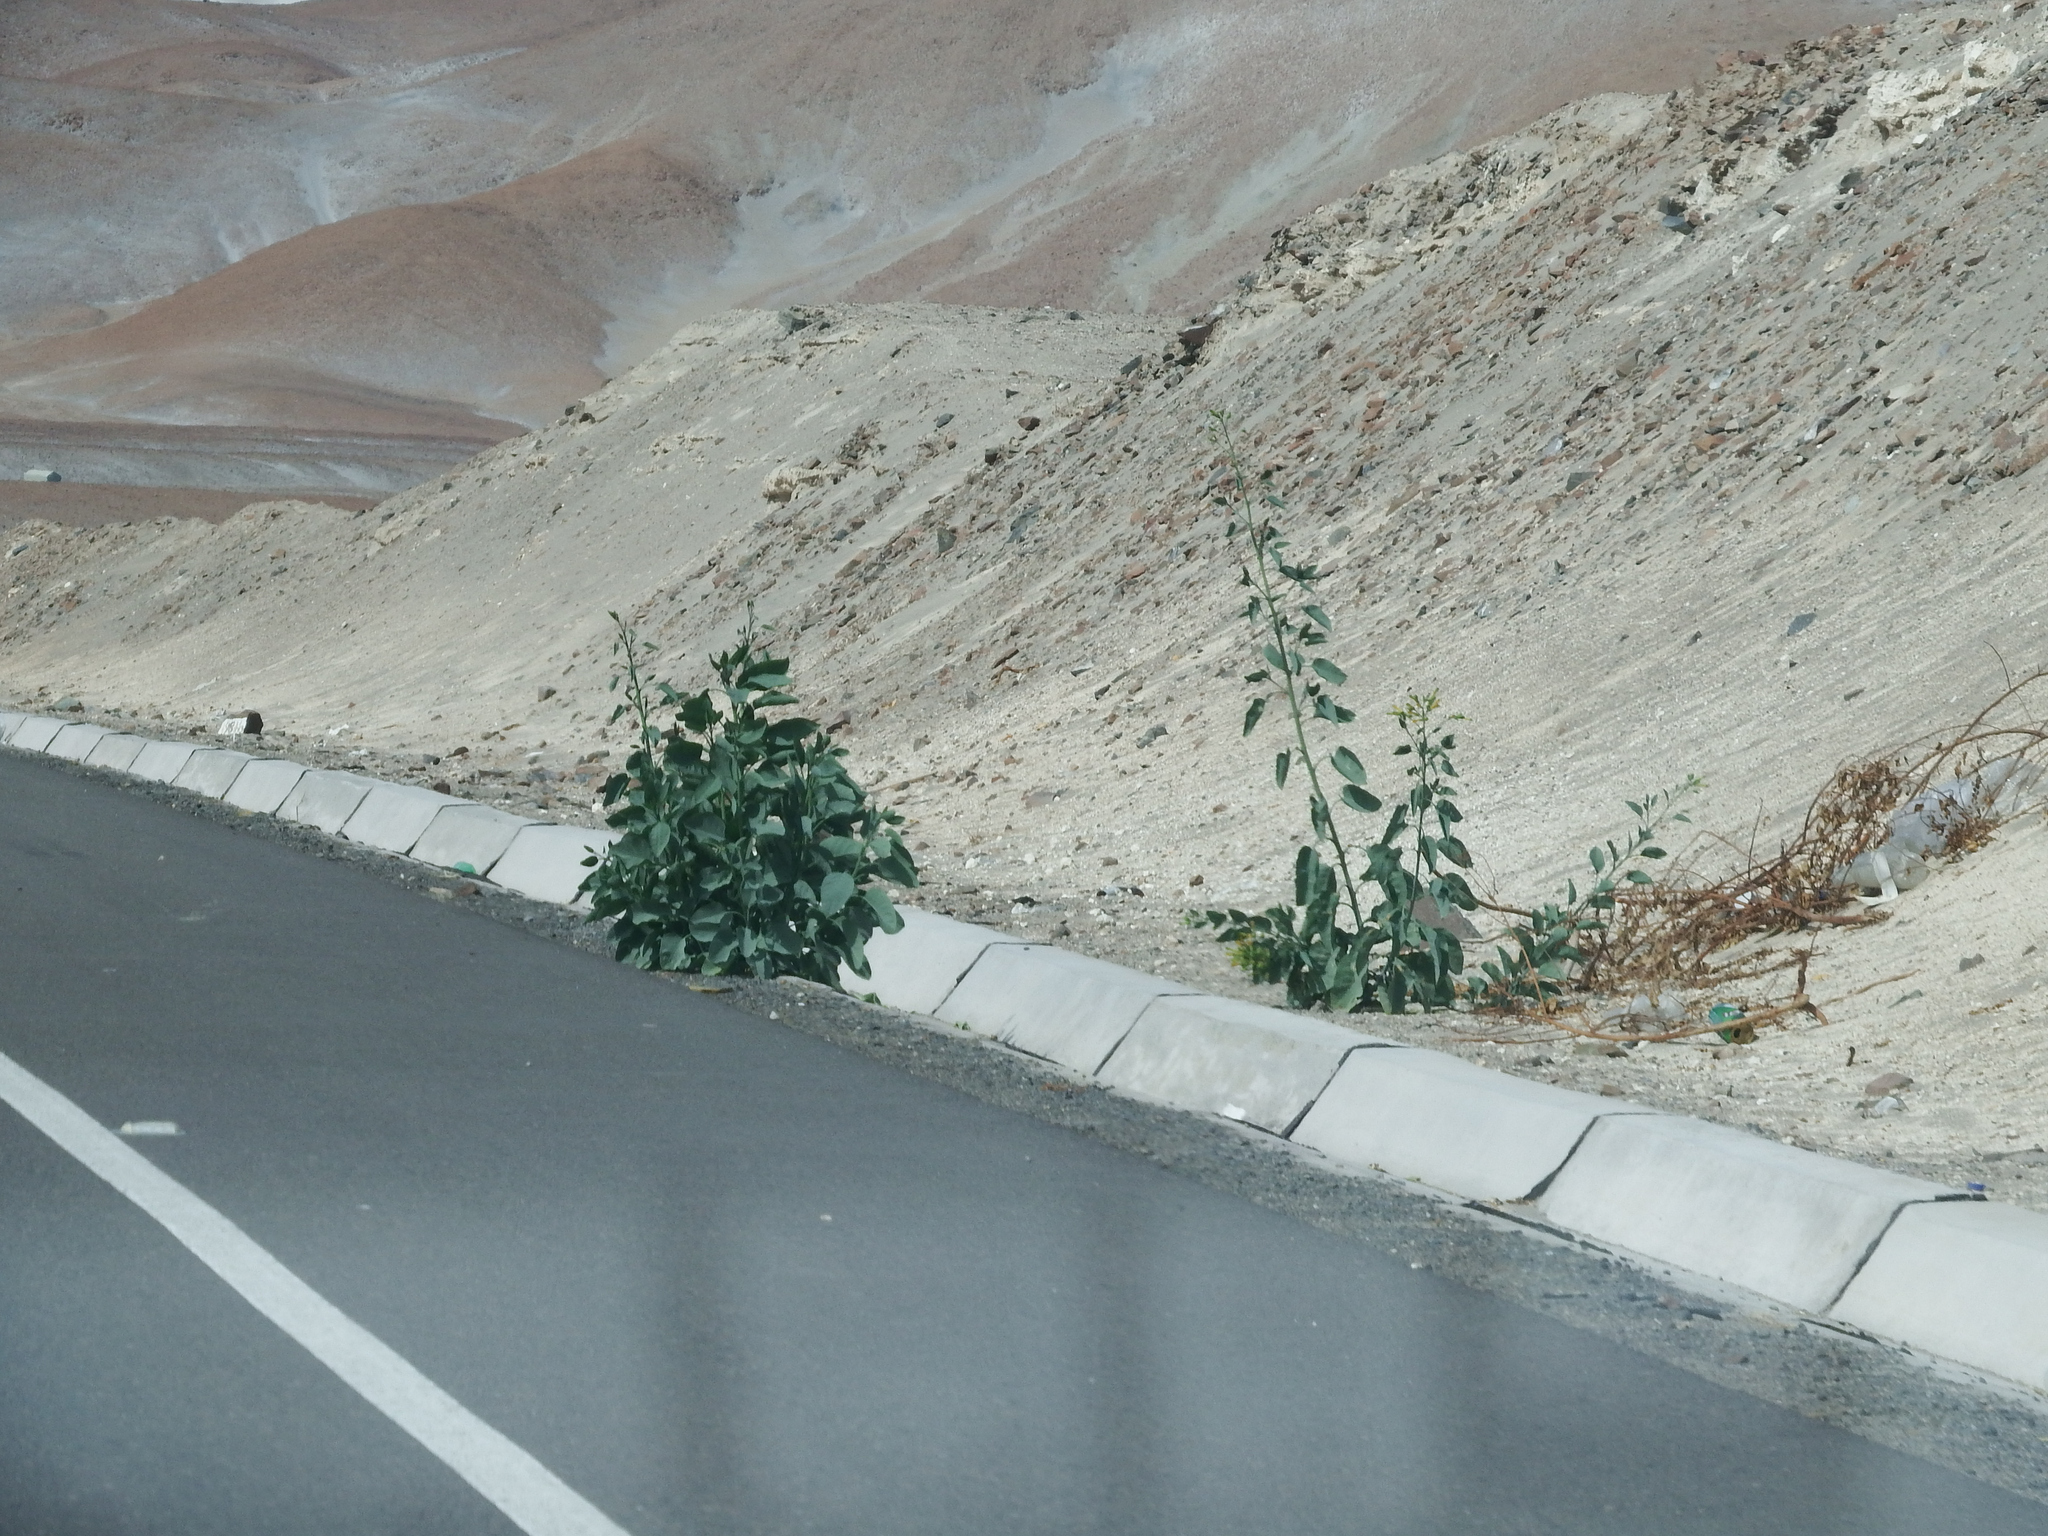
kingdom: Plantae
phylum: Tracheophyta
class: Magnoliopsida
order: Solanales
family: Solanaceae
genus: Nicotiana
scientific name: Nicotiana glauca
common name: Tree tobacco
